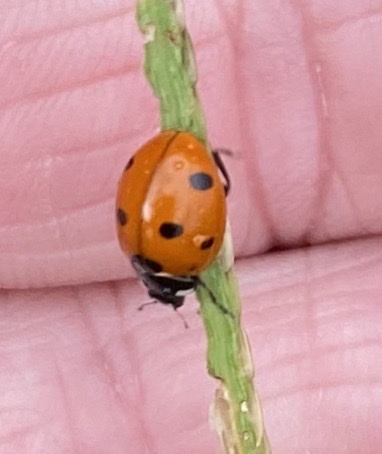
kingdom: Animalia
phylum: Arthropoda
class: Insecta
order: Coleoptera
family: Coccinellidae
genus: Coccinella
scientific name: Coccinella septempunctata
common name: Sevenspotted lady beetle
